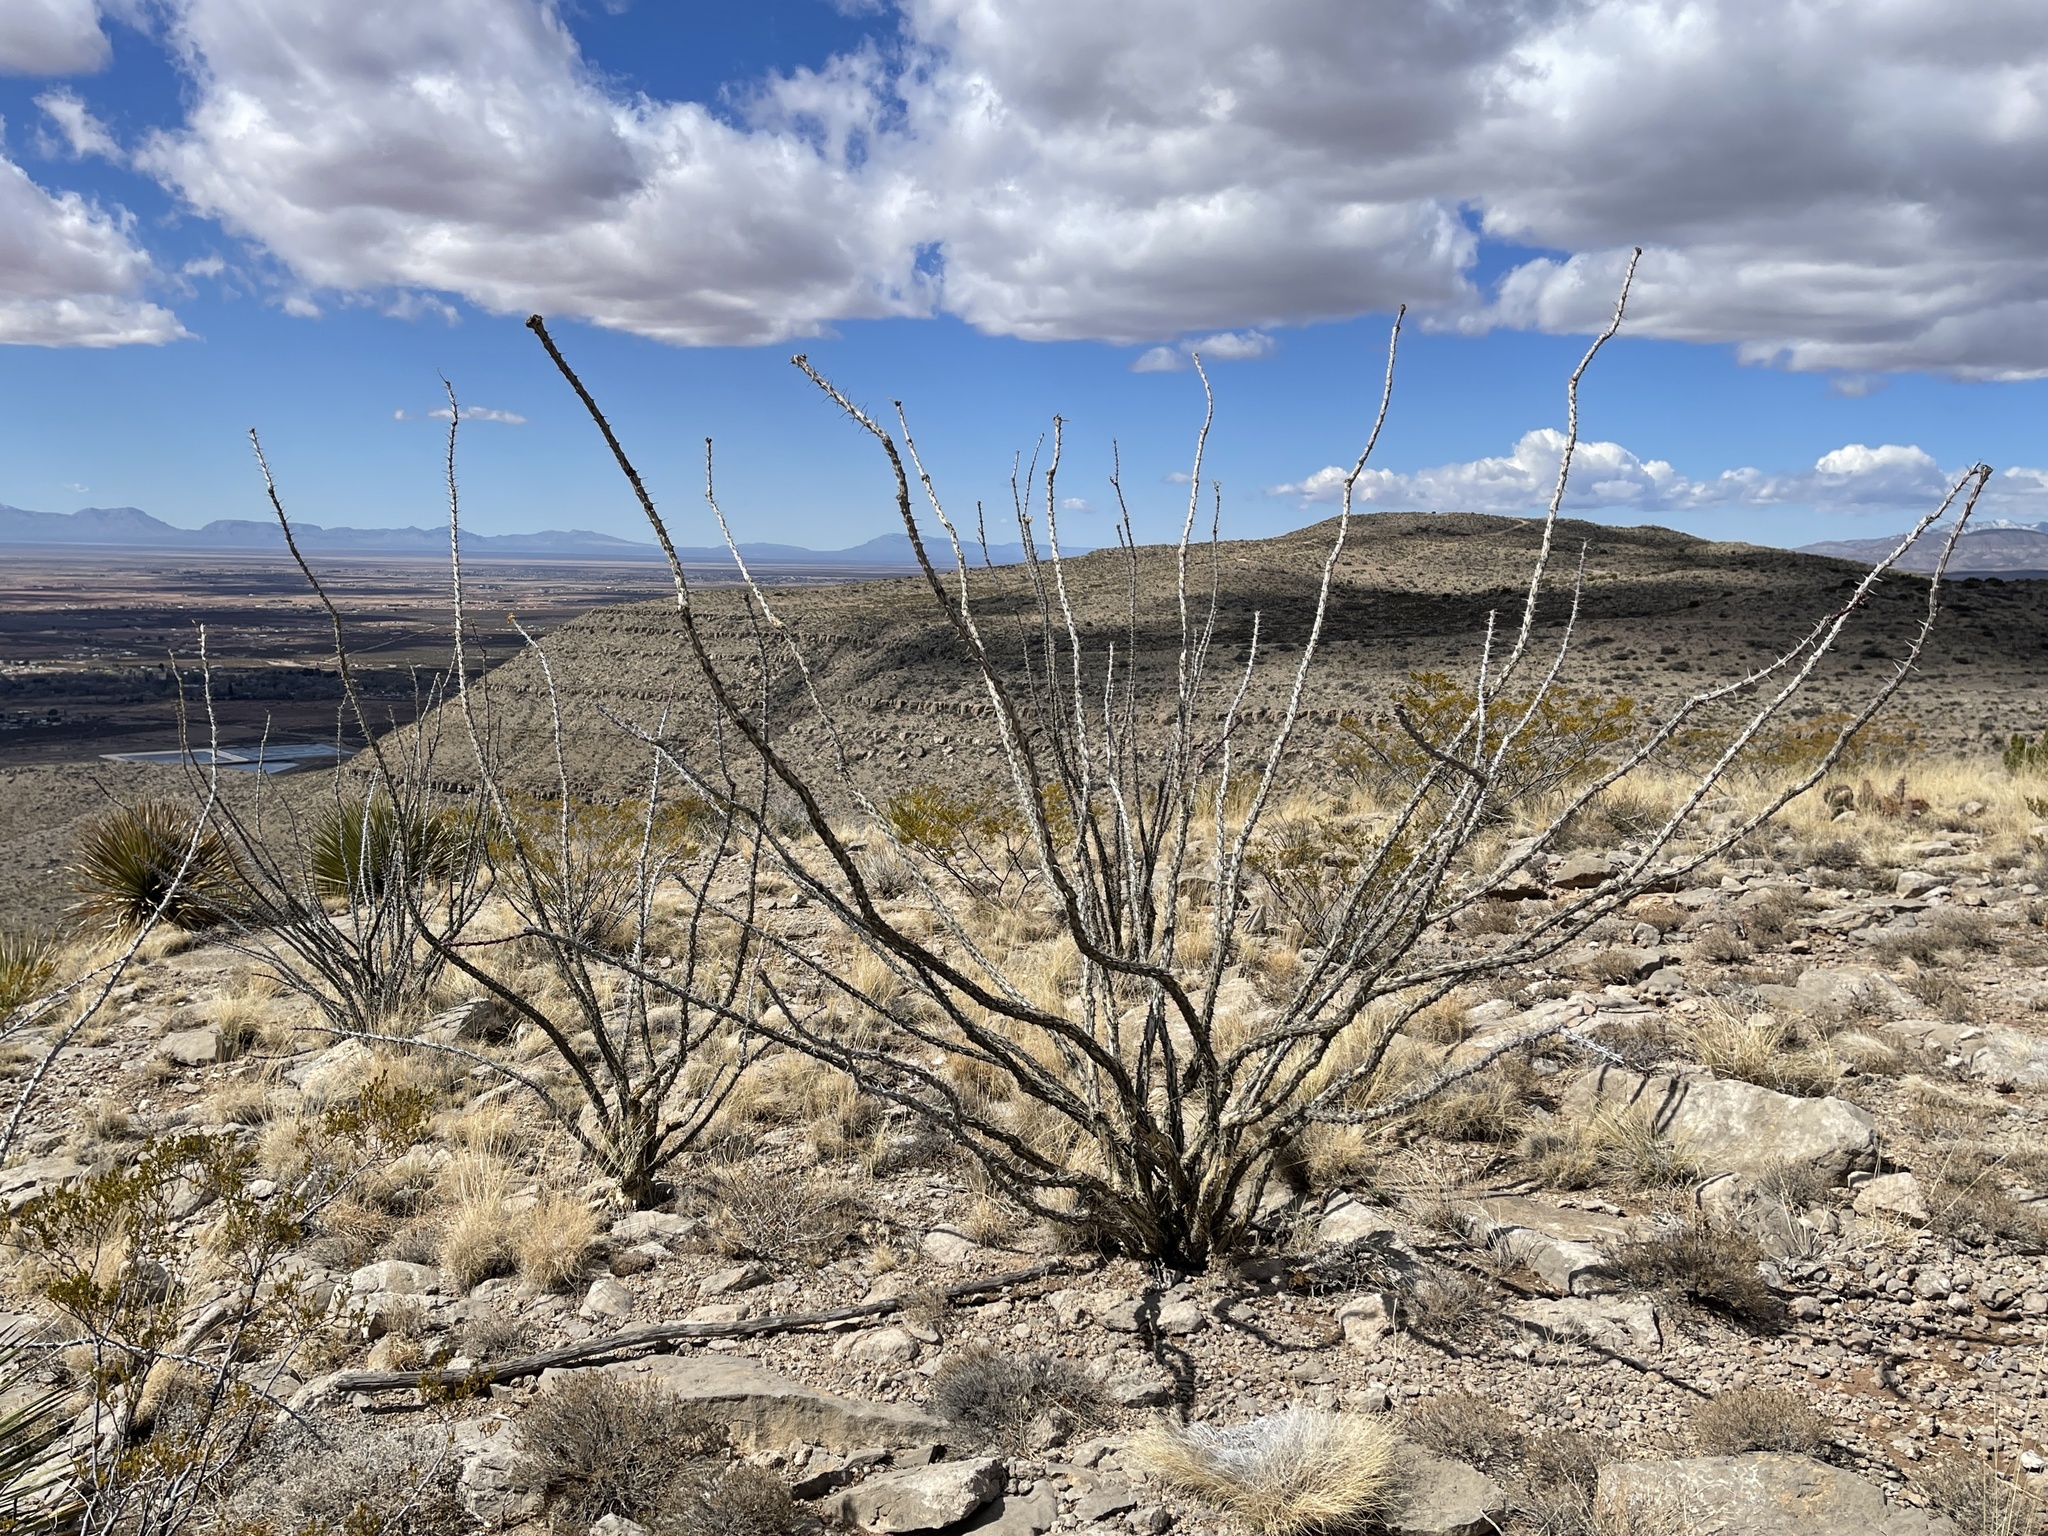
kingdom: Plantae
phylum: Tracheophyta
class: Magnoliopsida
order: Ericales
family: Fouquieriaceae
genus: Fouquieria
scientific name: Fouquieria splendens
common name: Vine-cactus
